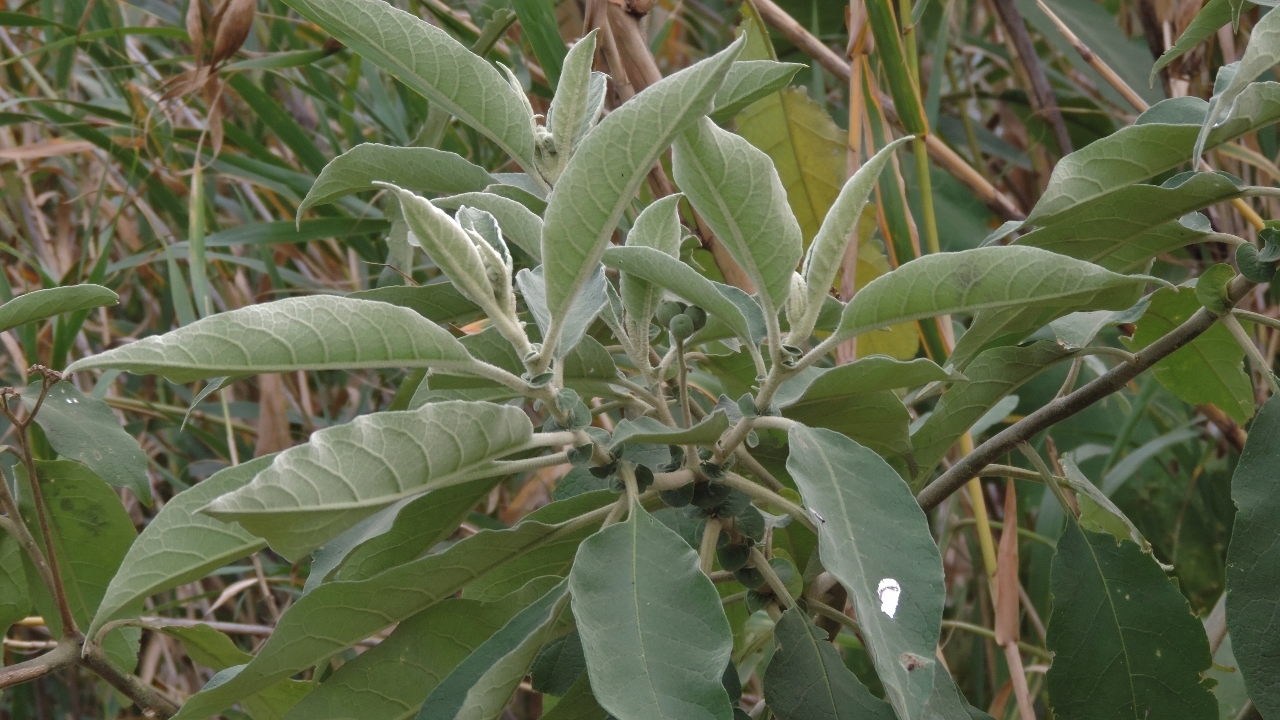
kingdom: Plantae
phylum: Tracheophyta
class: Magnoliopsida
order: Solanales
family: Solanaceae
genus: Solanum
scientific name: Solanum mauritianum
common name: Earleaf nightshade
